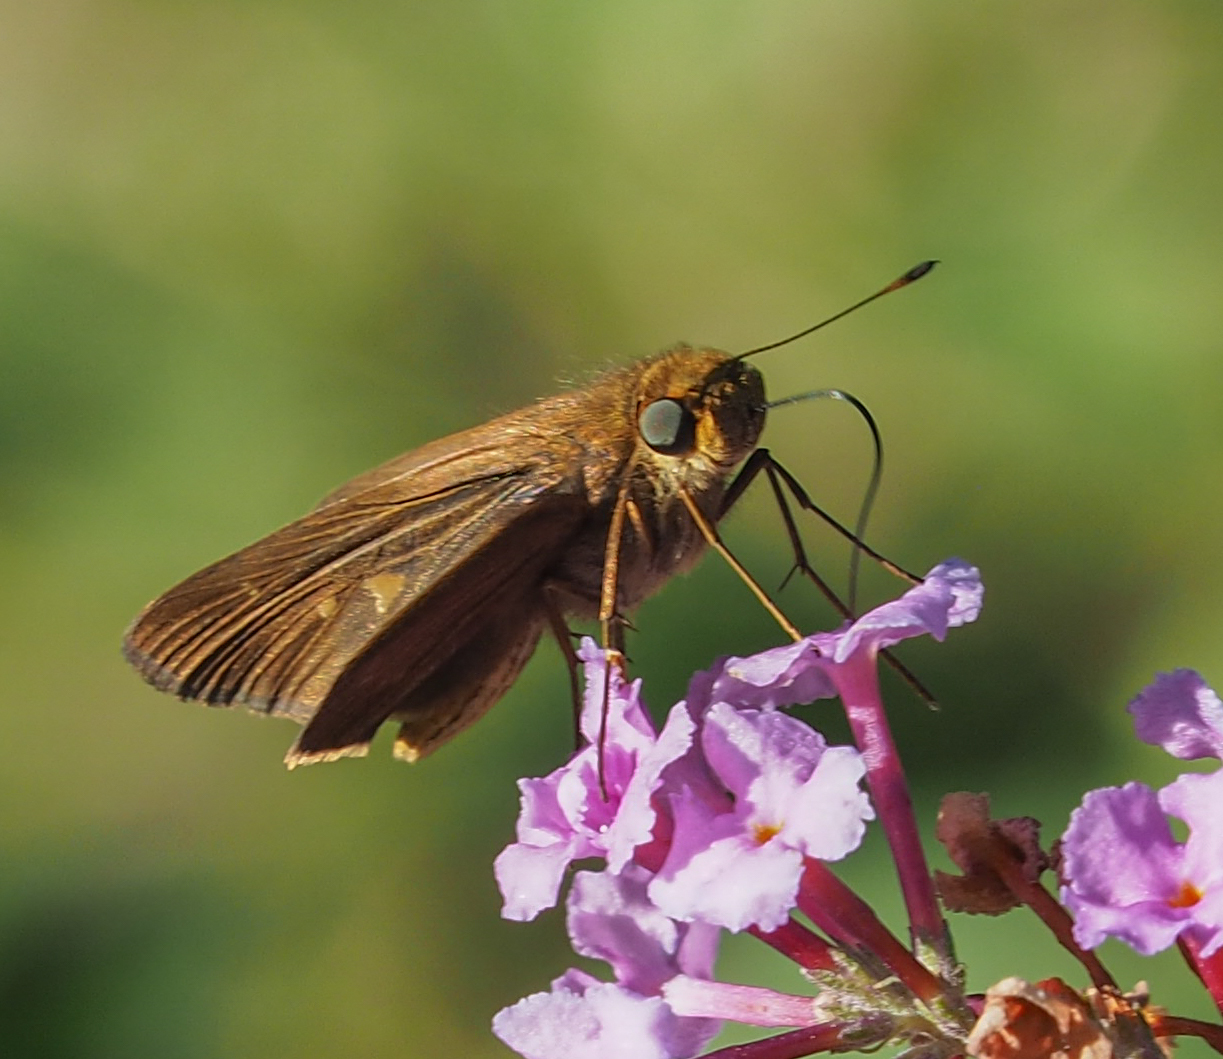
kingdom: Animalia
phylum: Arthropoda
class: Insecta
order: Lepidoptera
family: Hesperiidae
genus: Panoquina
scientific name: Panoquina ocola
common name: Ocola skipper
